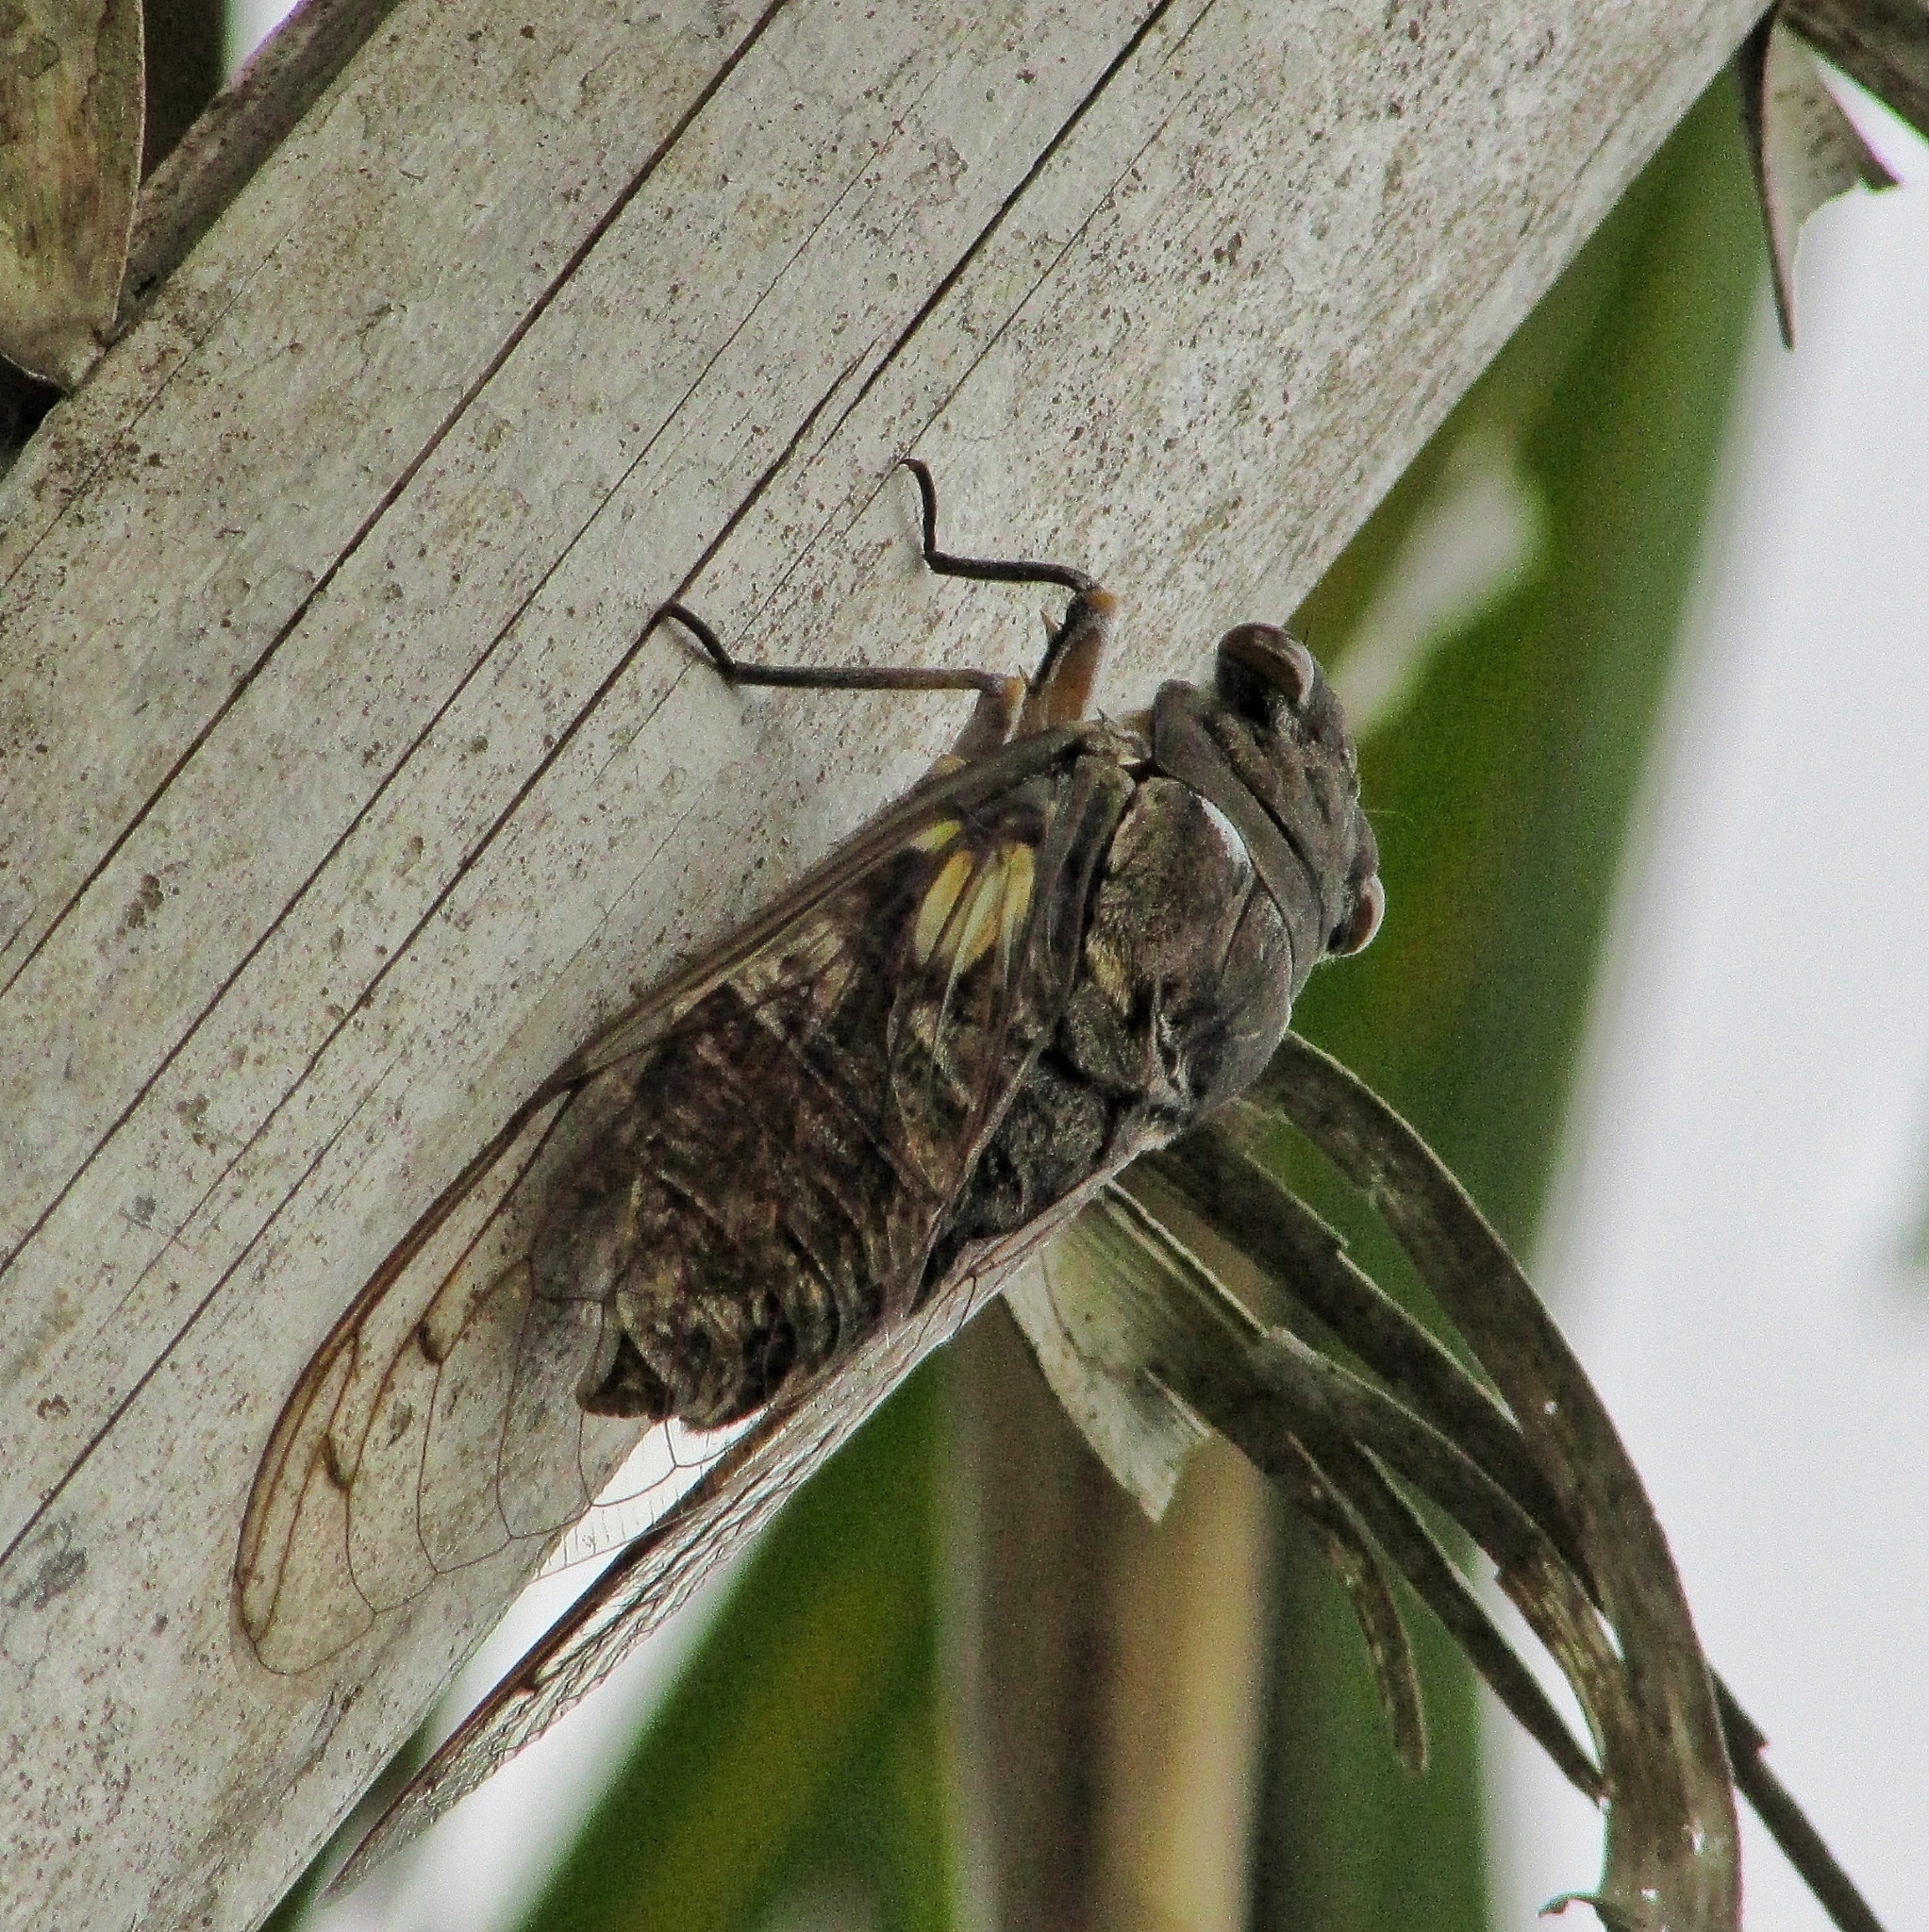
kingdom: Animalia
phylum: Arthropoda
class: Insecta
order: Hemiptera
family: Cicadidae
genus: Quesada
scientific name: Quesada gigas
